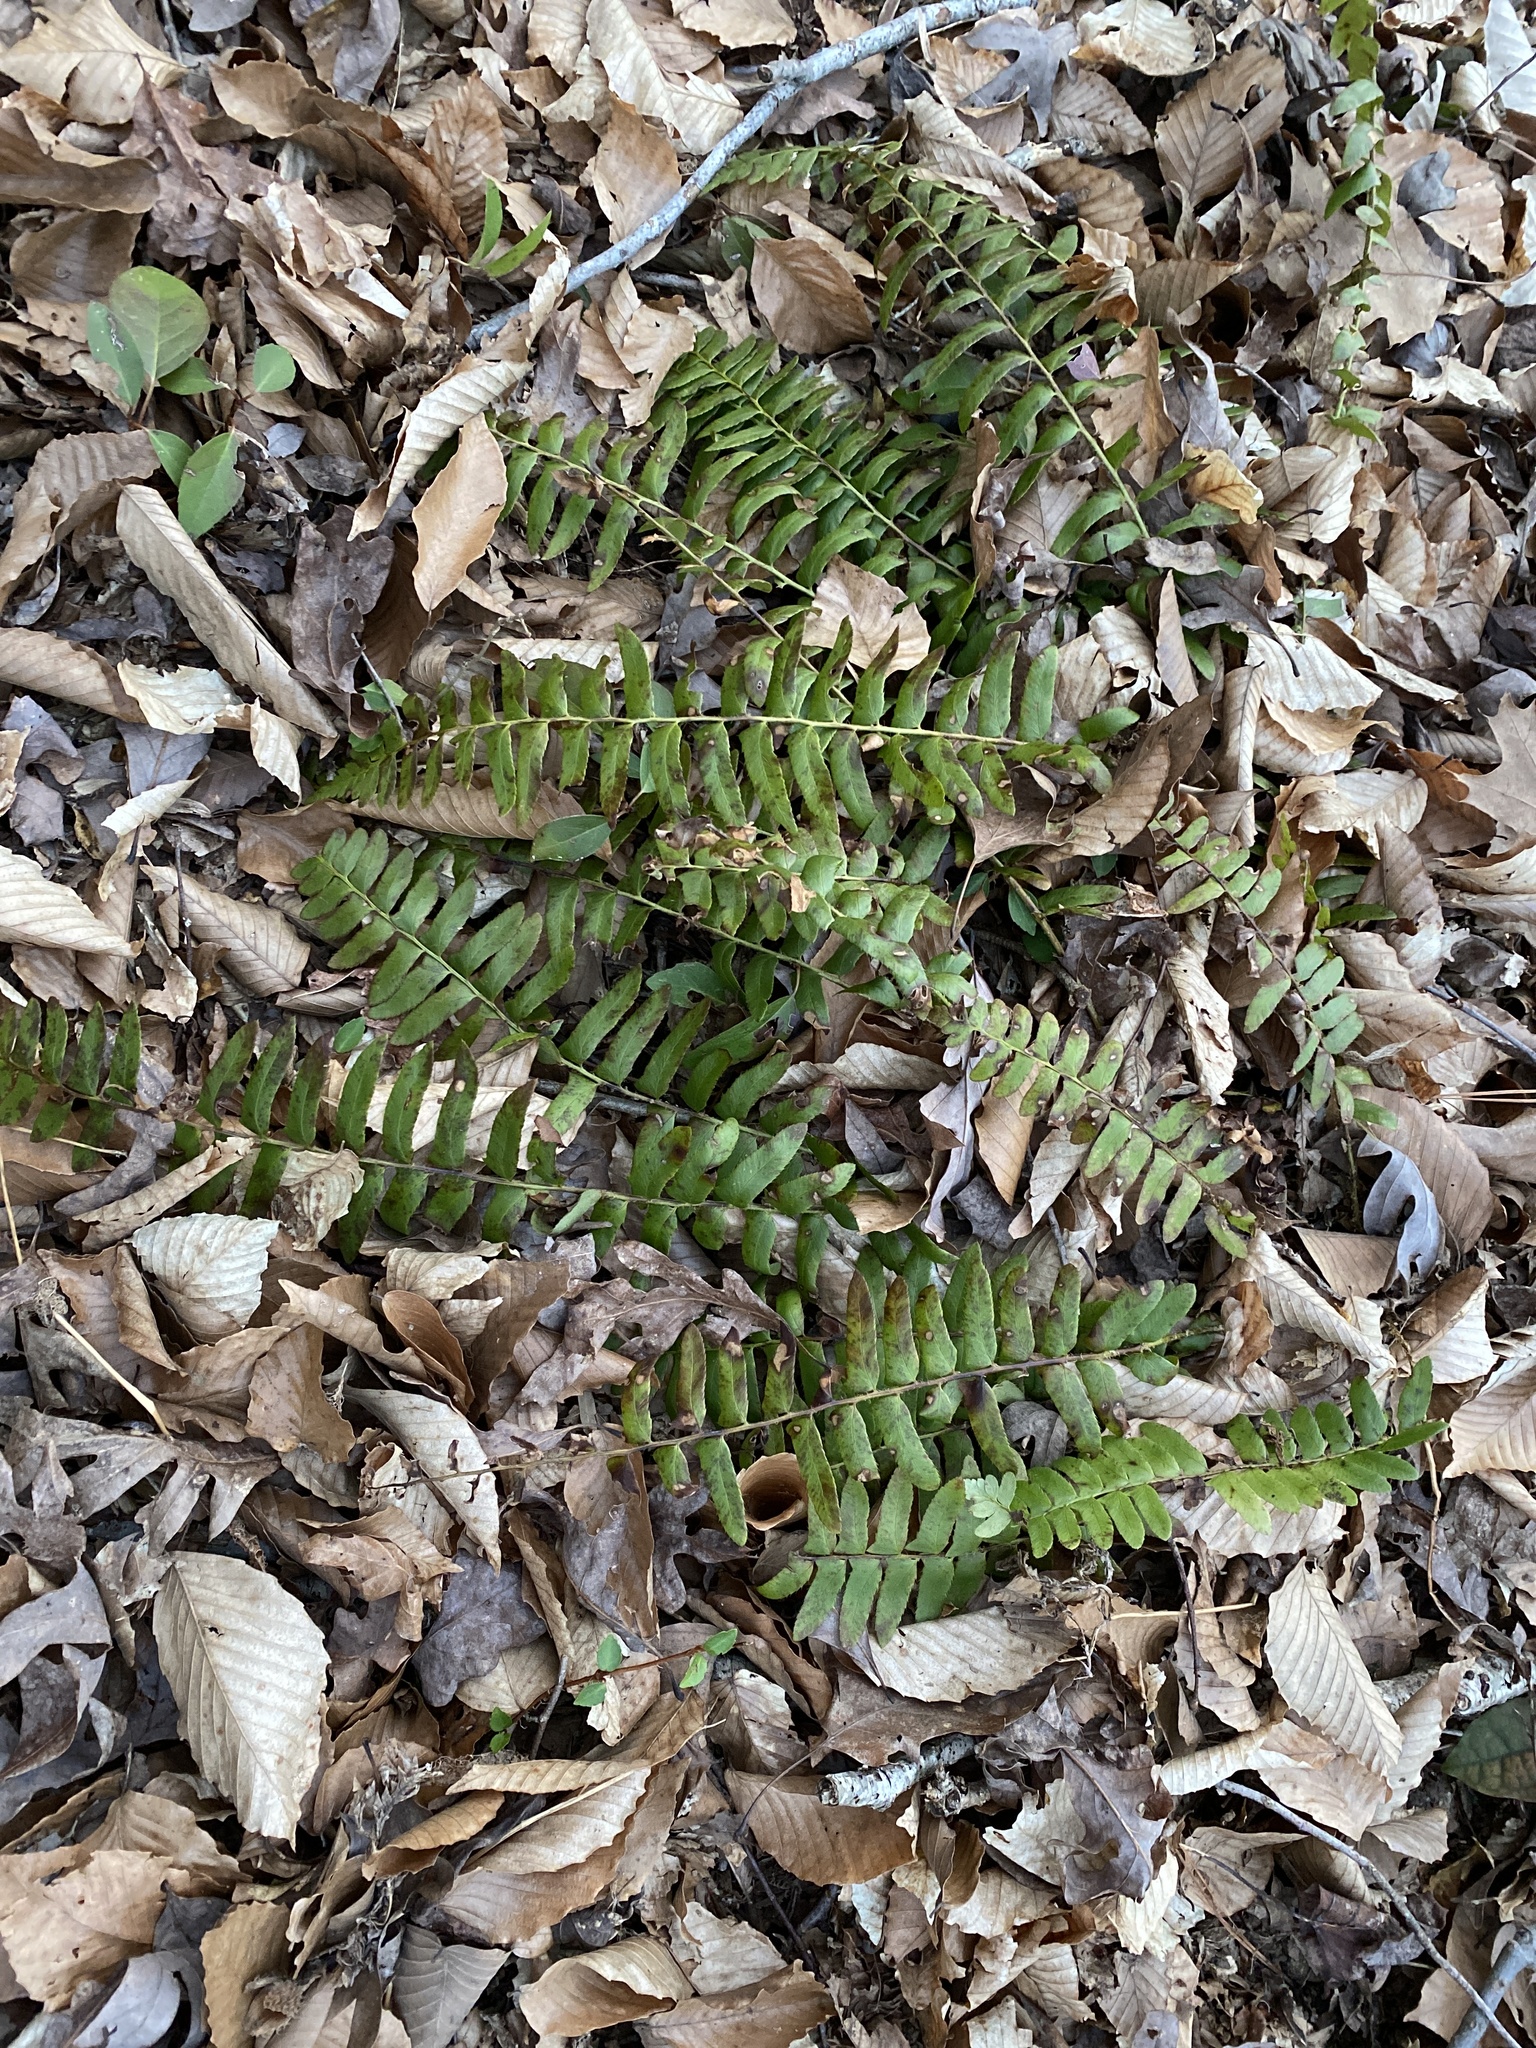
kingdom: Plantae
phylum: Tracheophyta
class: Polypodiopsida
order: Polypodiales
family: Dryopteridaceae
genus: Polystichum
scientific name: Polystichum acrostichoides
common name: Christmas fern
